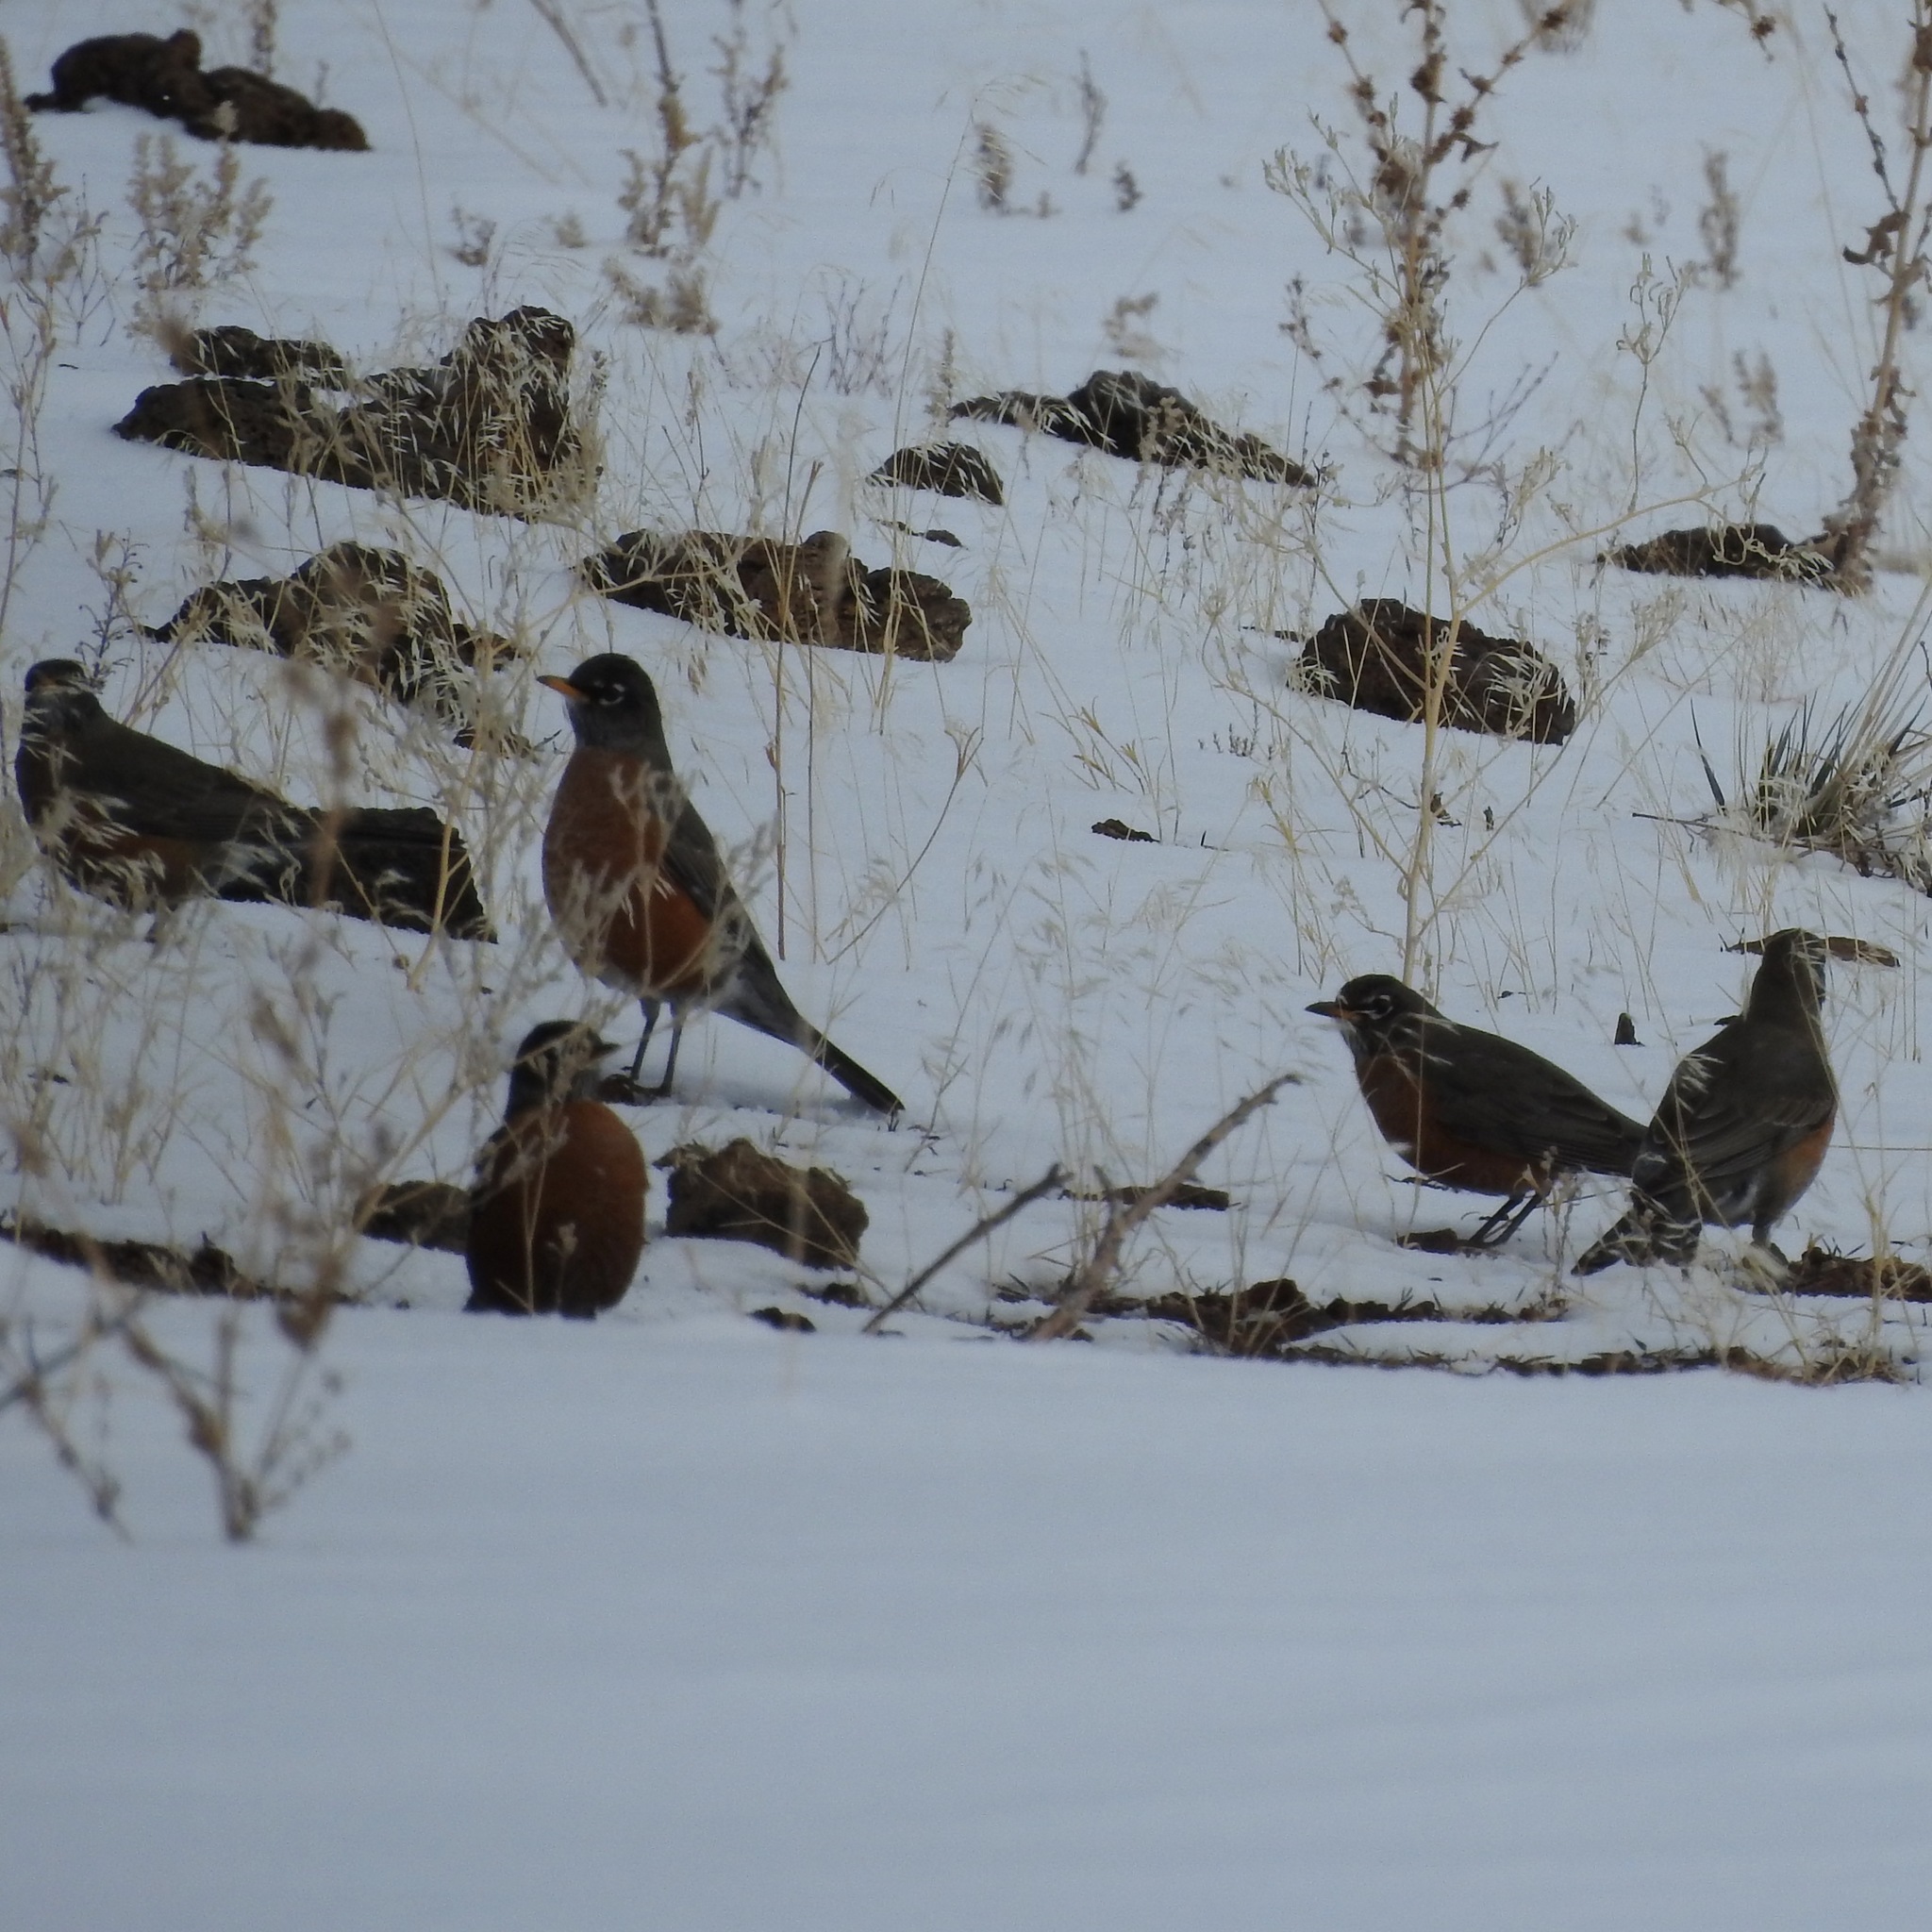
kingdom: Animalia
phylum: Chordata
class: Aves
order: Passeriformes
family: Turdidae
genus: Turdus
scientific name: Turdus migratorius
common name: American robin
